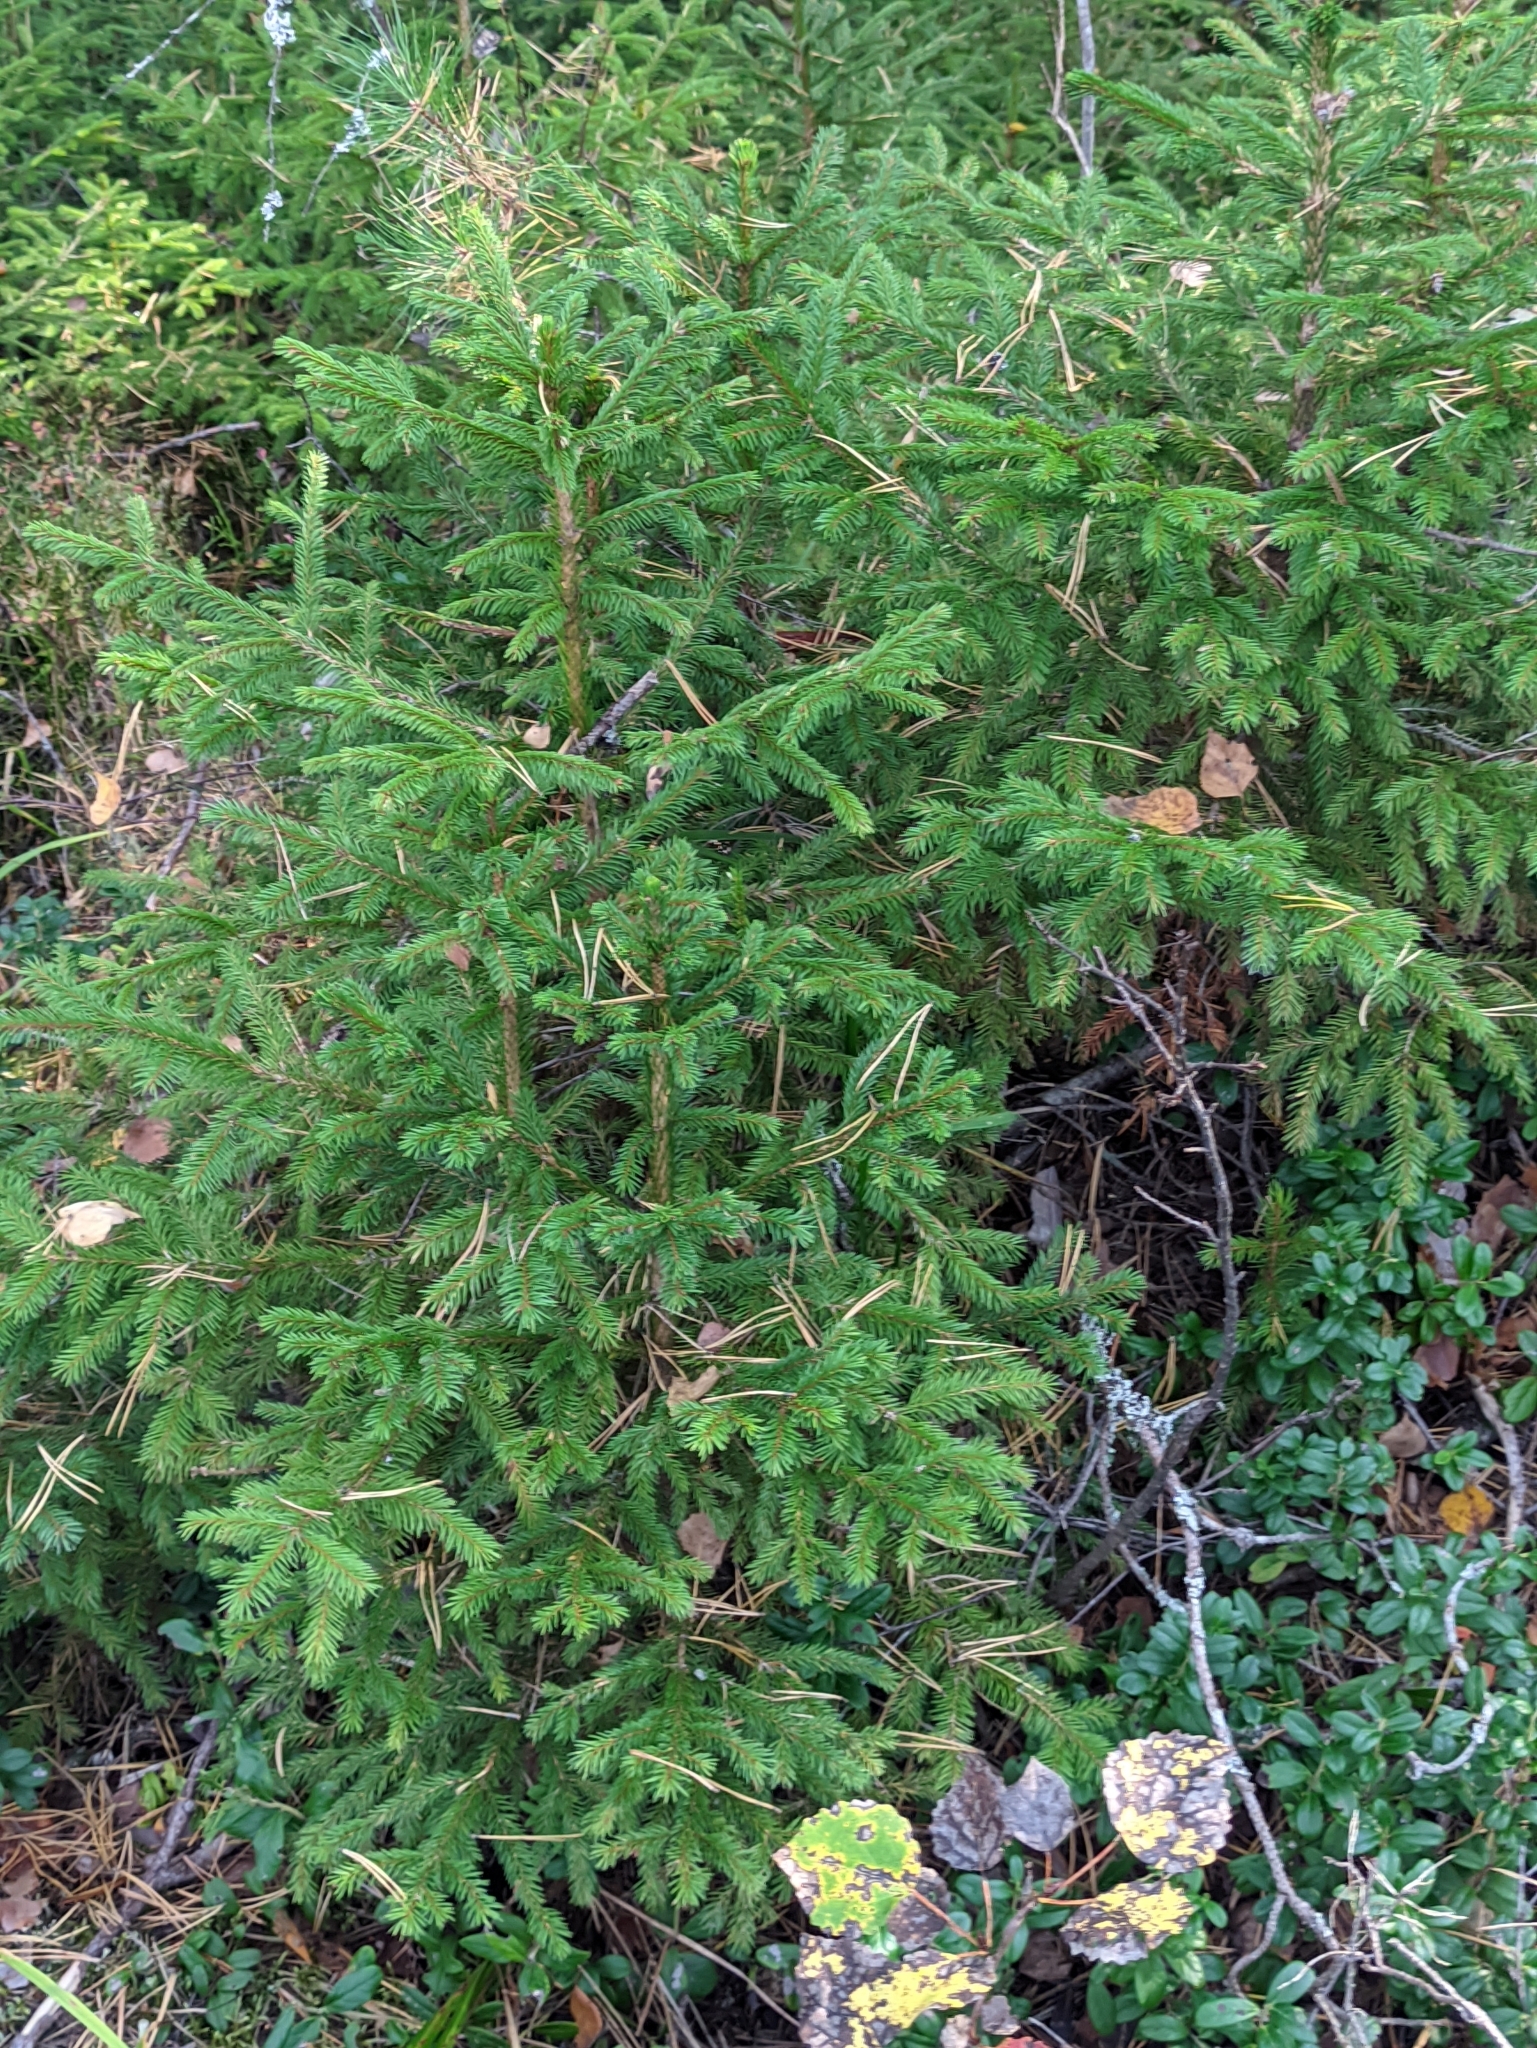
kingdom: Plantae
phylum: Tracheophyta
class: Pinopsida
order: Pinales
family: Pinaceae
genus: Picea
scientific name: Picea abies
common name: Norway spruce
